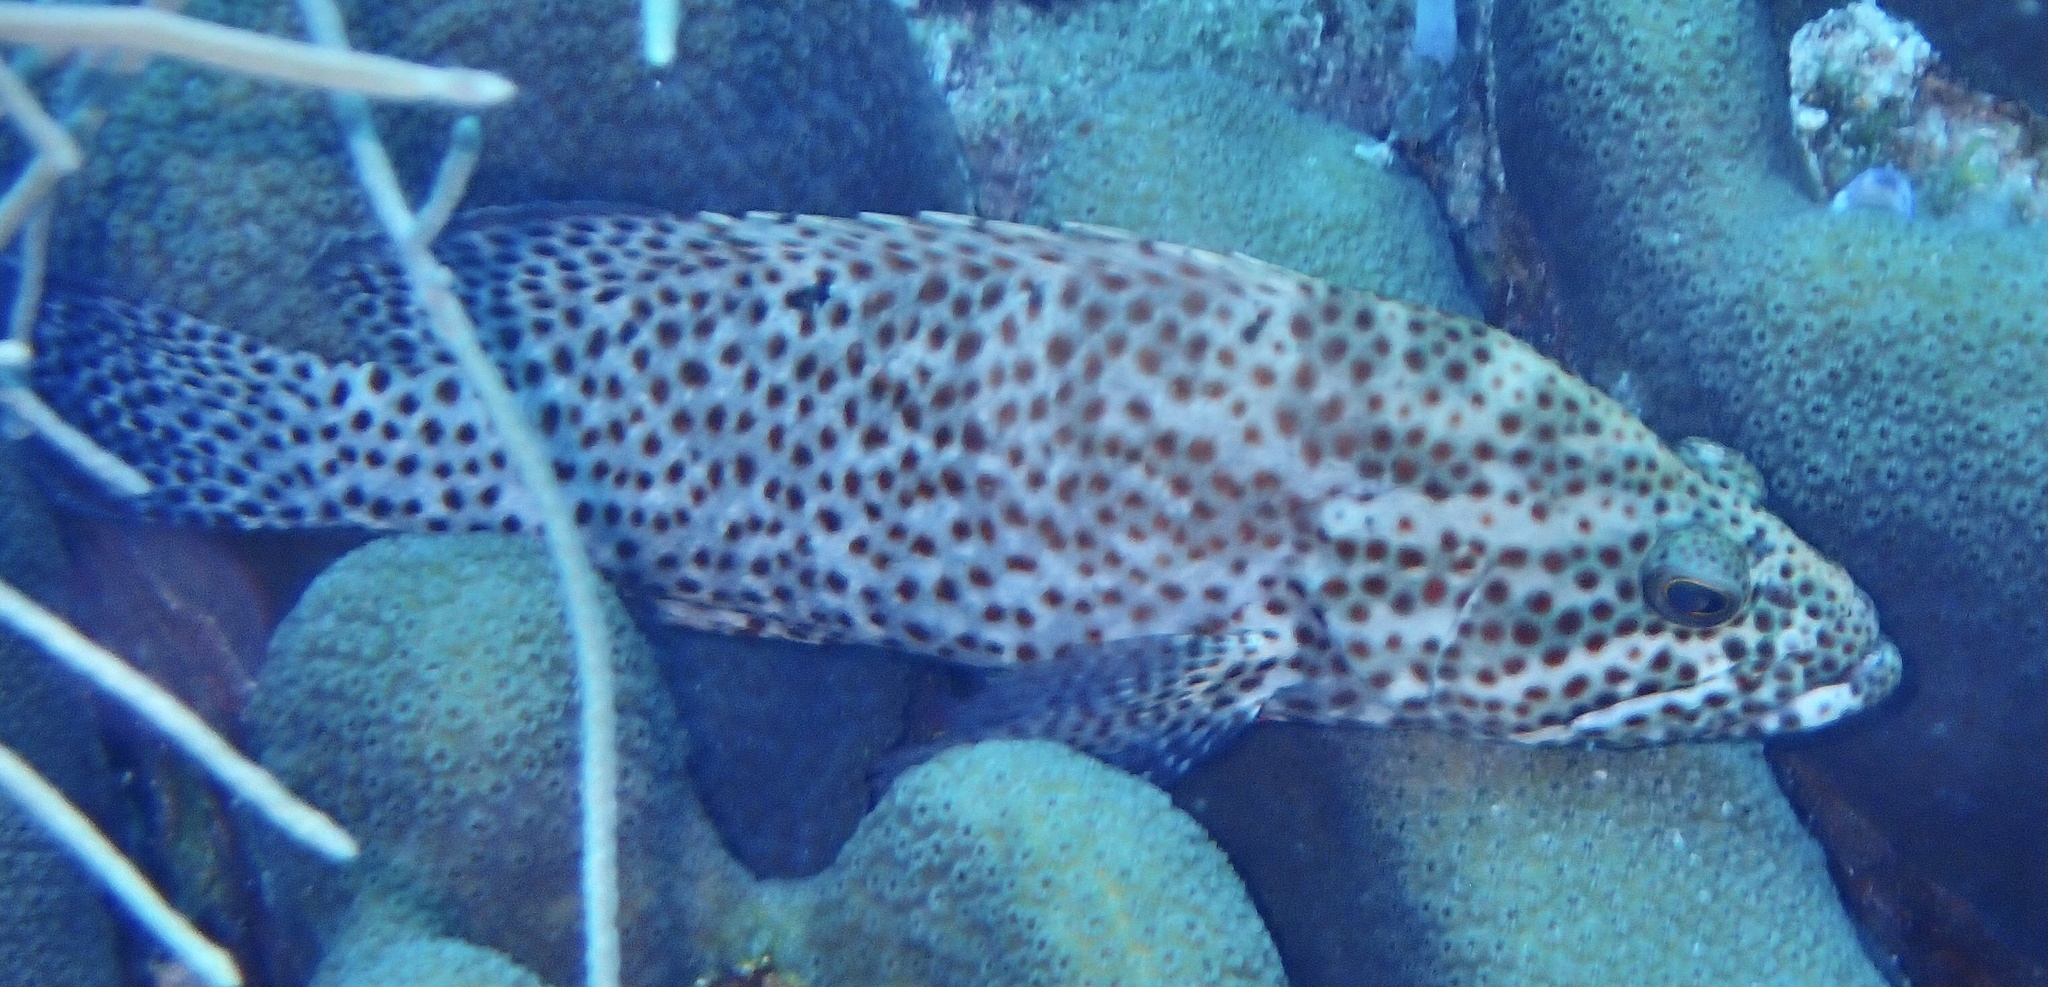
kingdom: Animalia
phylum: Chordata
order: Perciformes
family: Serranidae
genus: Cephalopholis
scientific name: Cephalopholis cruentata
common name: Graysby
